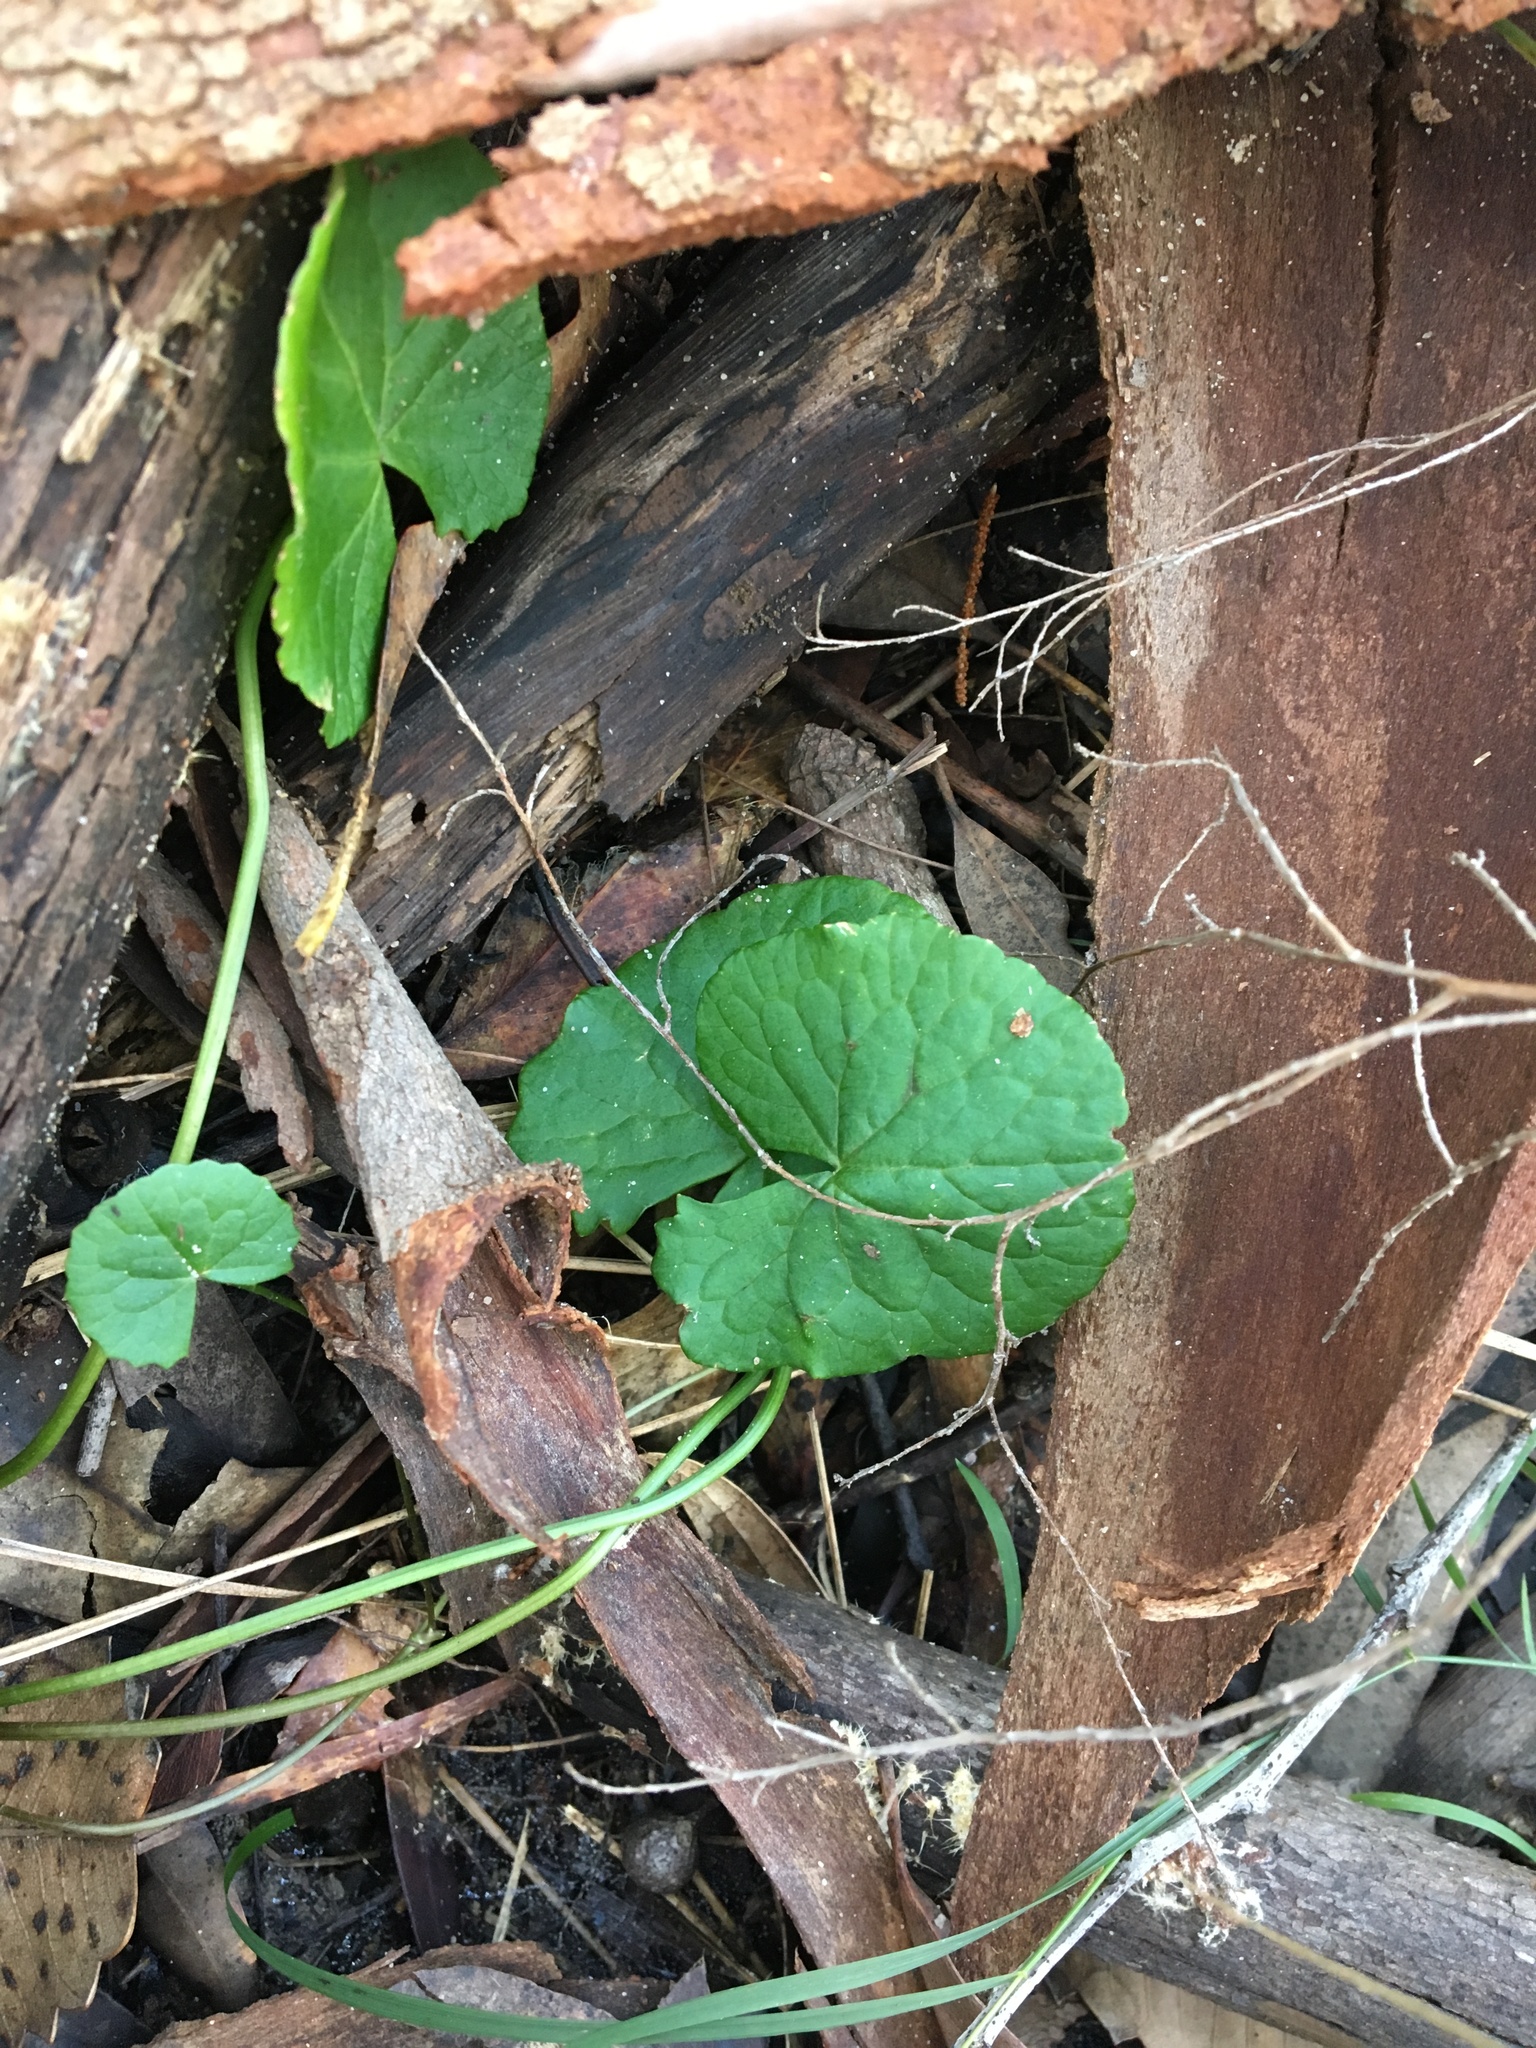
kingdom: Plantae
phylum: Tracheophyta
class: Magnoliopsida
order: Apiales
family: Apiaceae
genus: Centella
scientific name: Centella asiatica
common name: Spadeleaf
